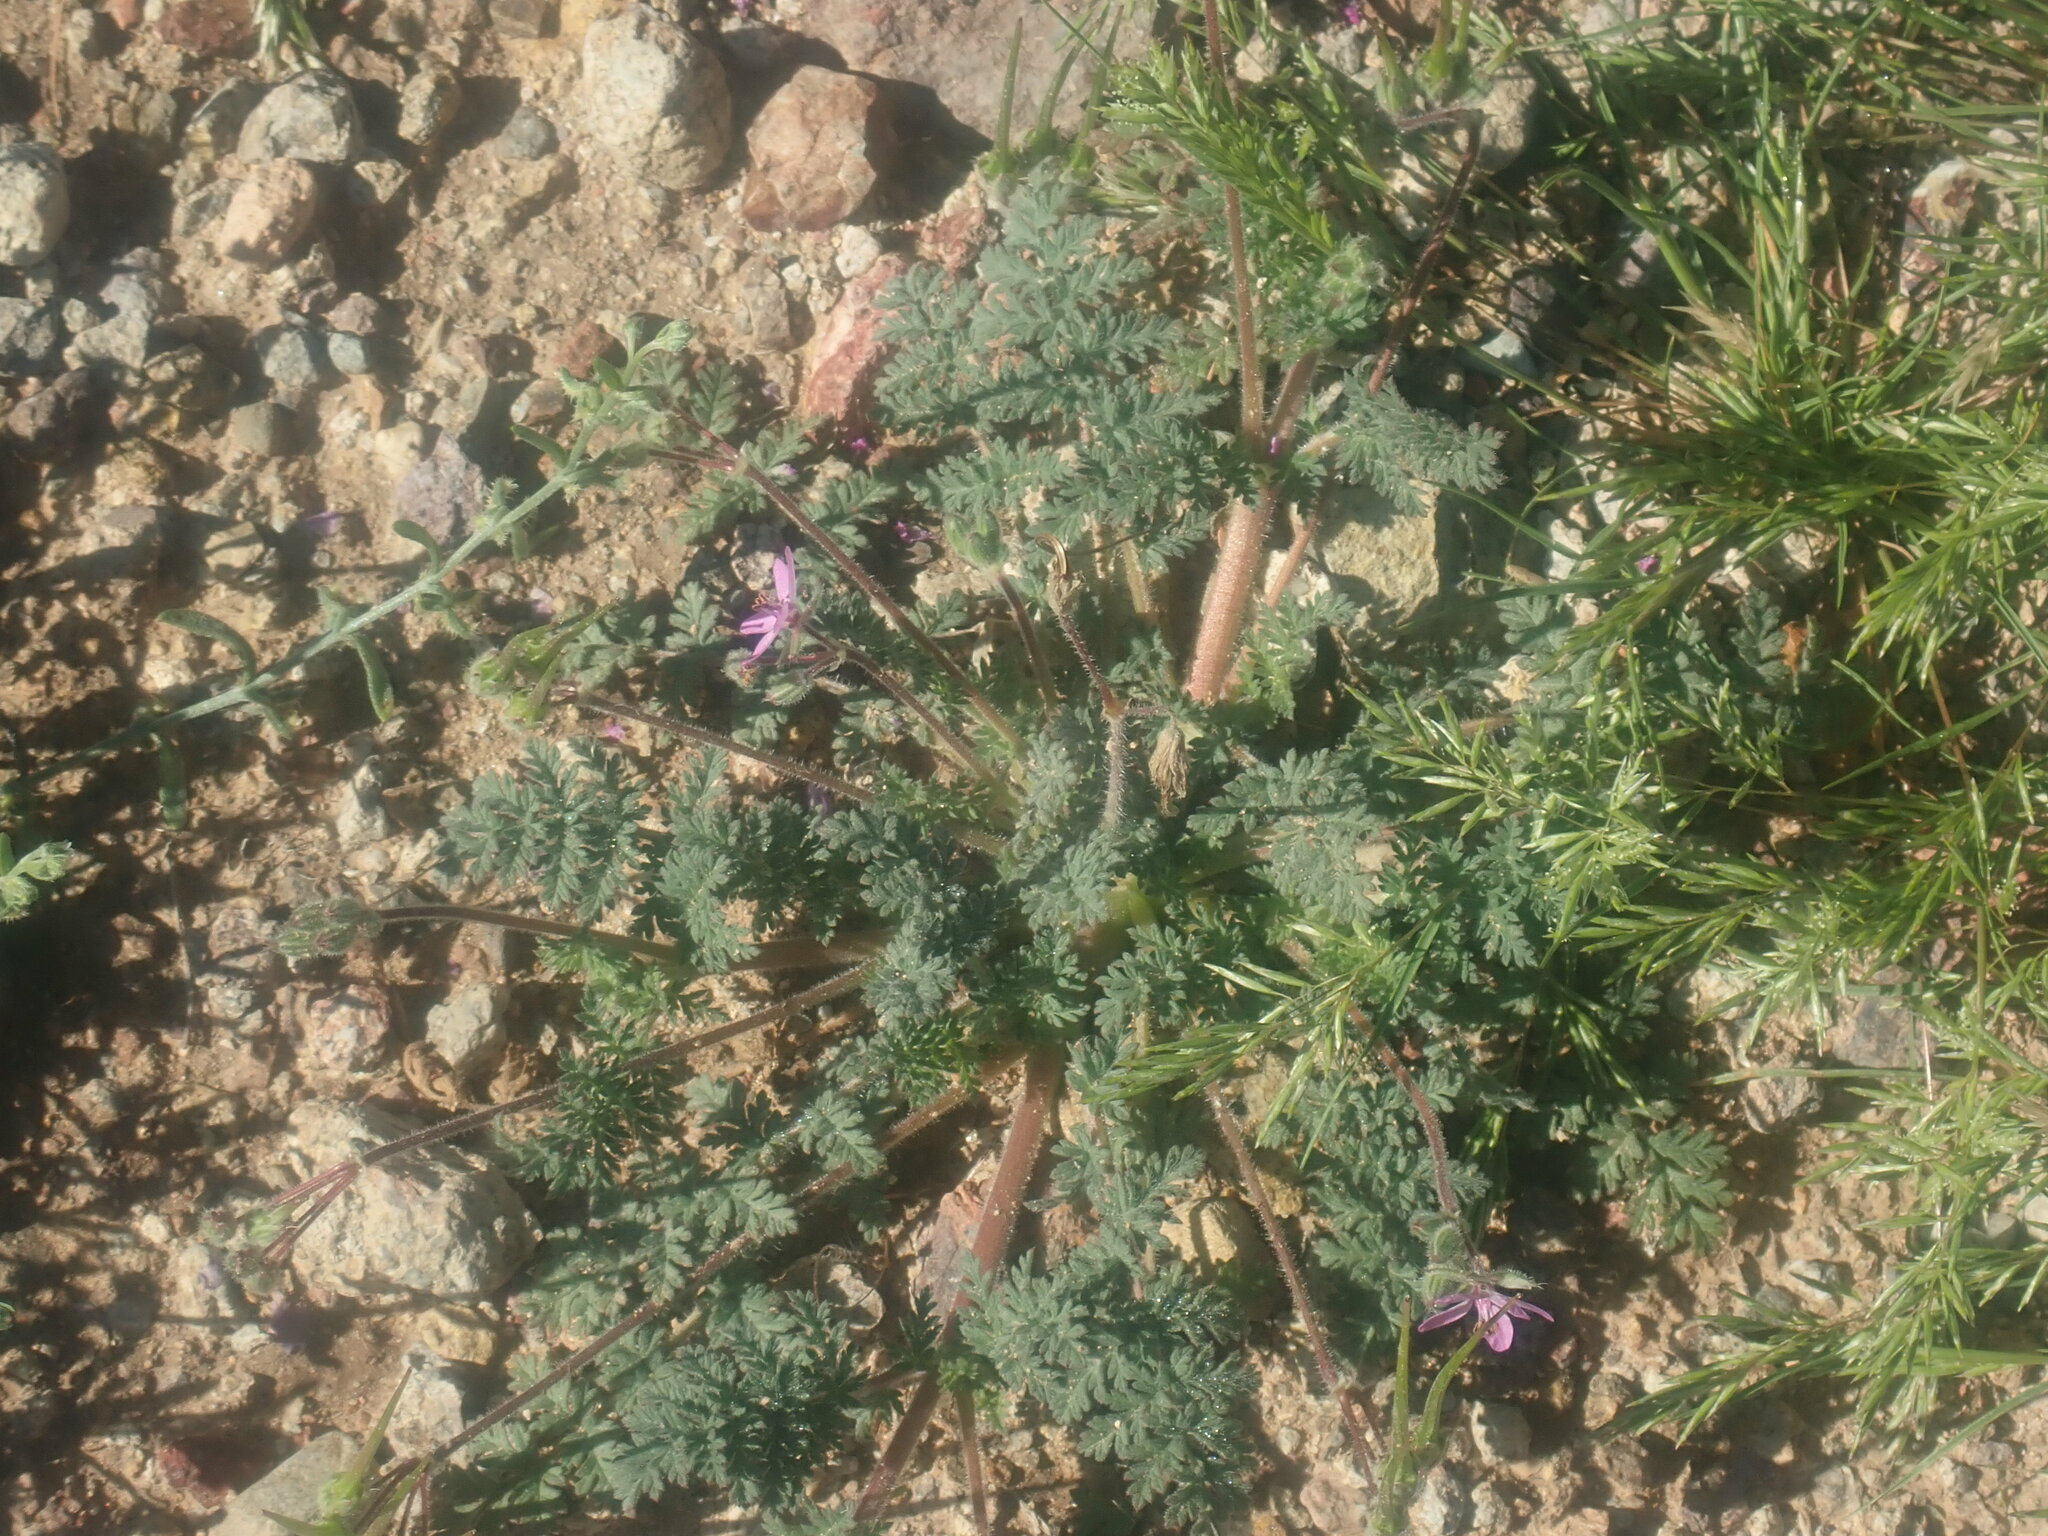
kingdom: Plantae
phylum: Tracheophyta
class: Magnoliopsida
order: Geraniales
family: Geraniaceae
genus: Erodium
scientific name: Erodium cicutarium
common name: Common stork's-bill
